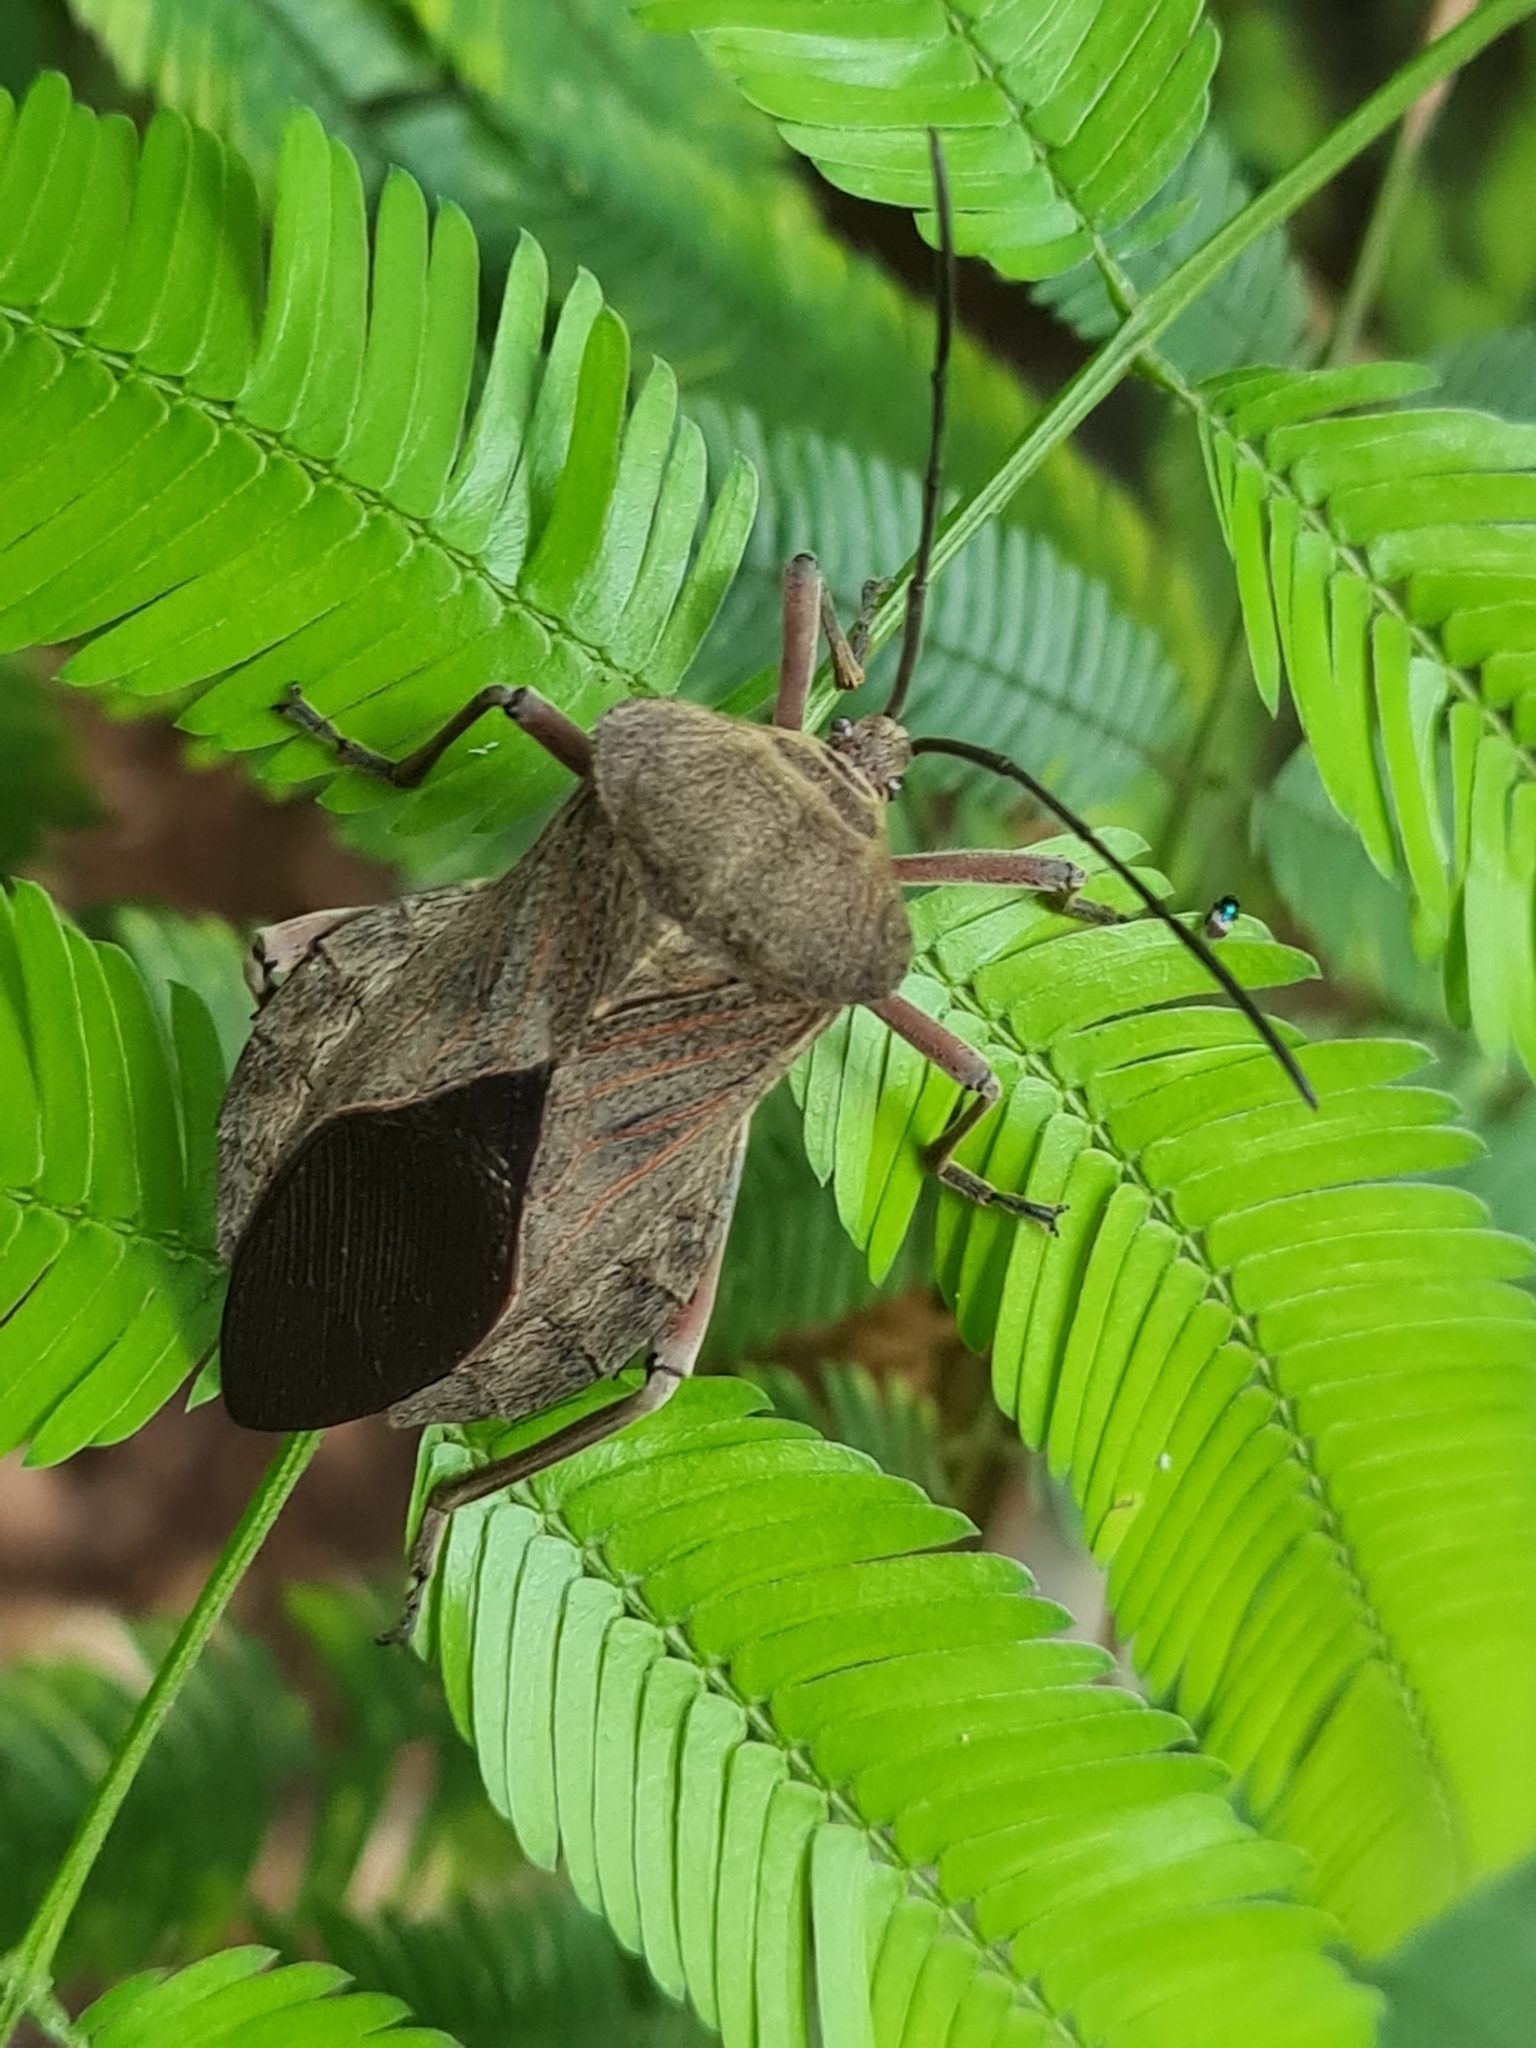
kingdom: Animalia
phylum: Arthropoda
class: Insecta
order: Hemiptera
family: Coreidae
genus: Pachylis
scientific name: Pachylis bipunctatus
